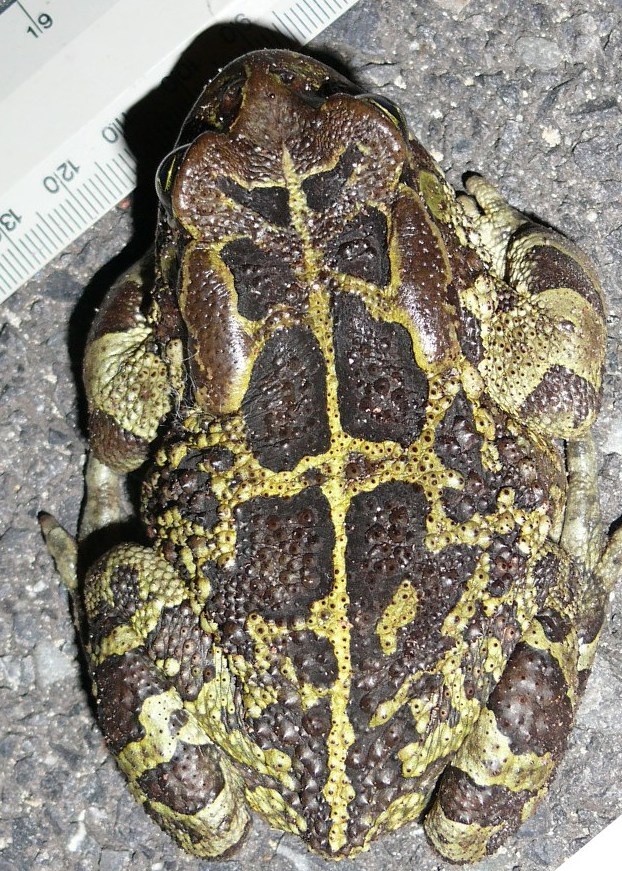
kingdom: Animalia
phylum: Chordata
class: Amphibia
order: Anura
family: Bufonidae
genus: Sclerophrys
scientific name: Sclerophrys pantherina
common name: Panther toad
